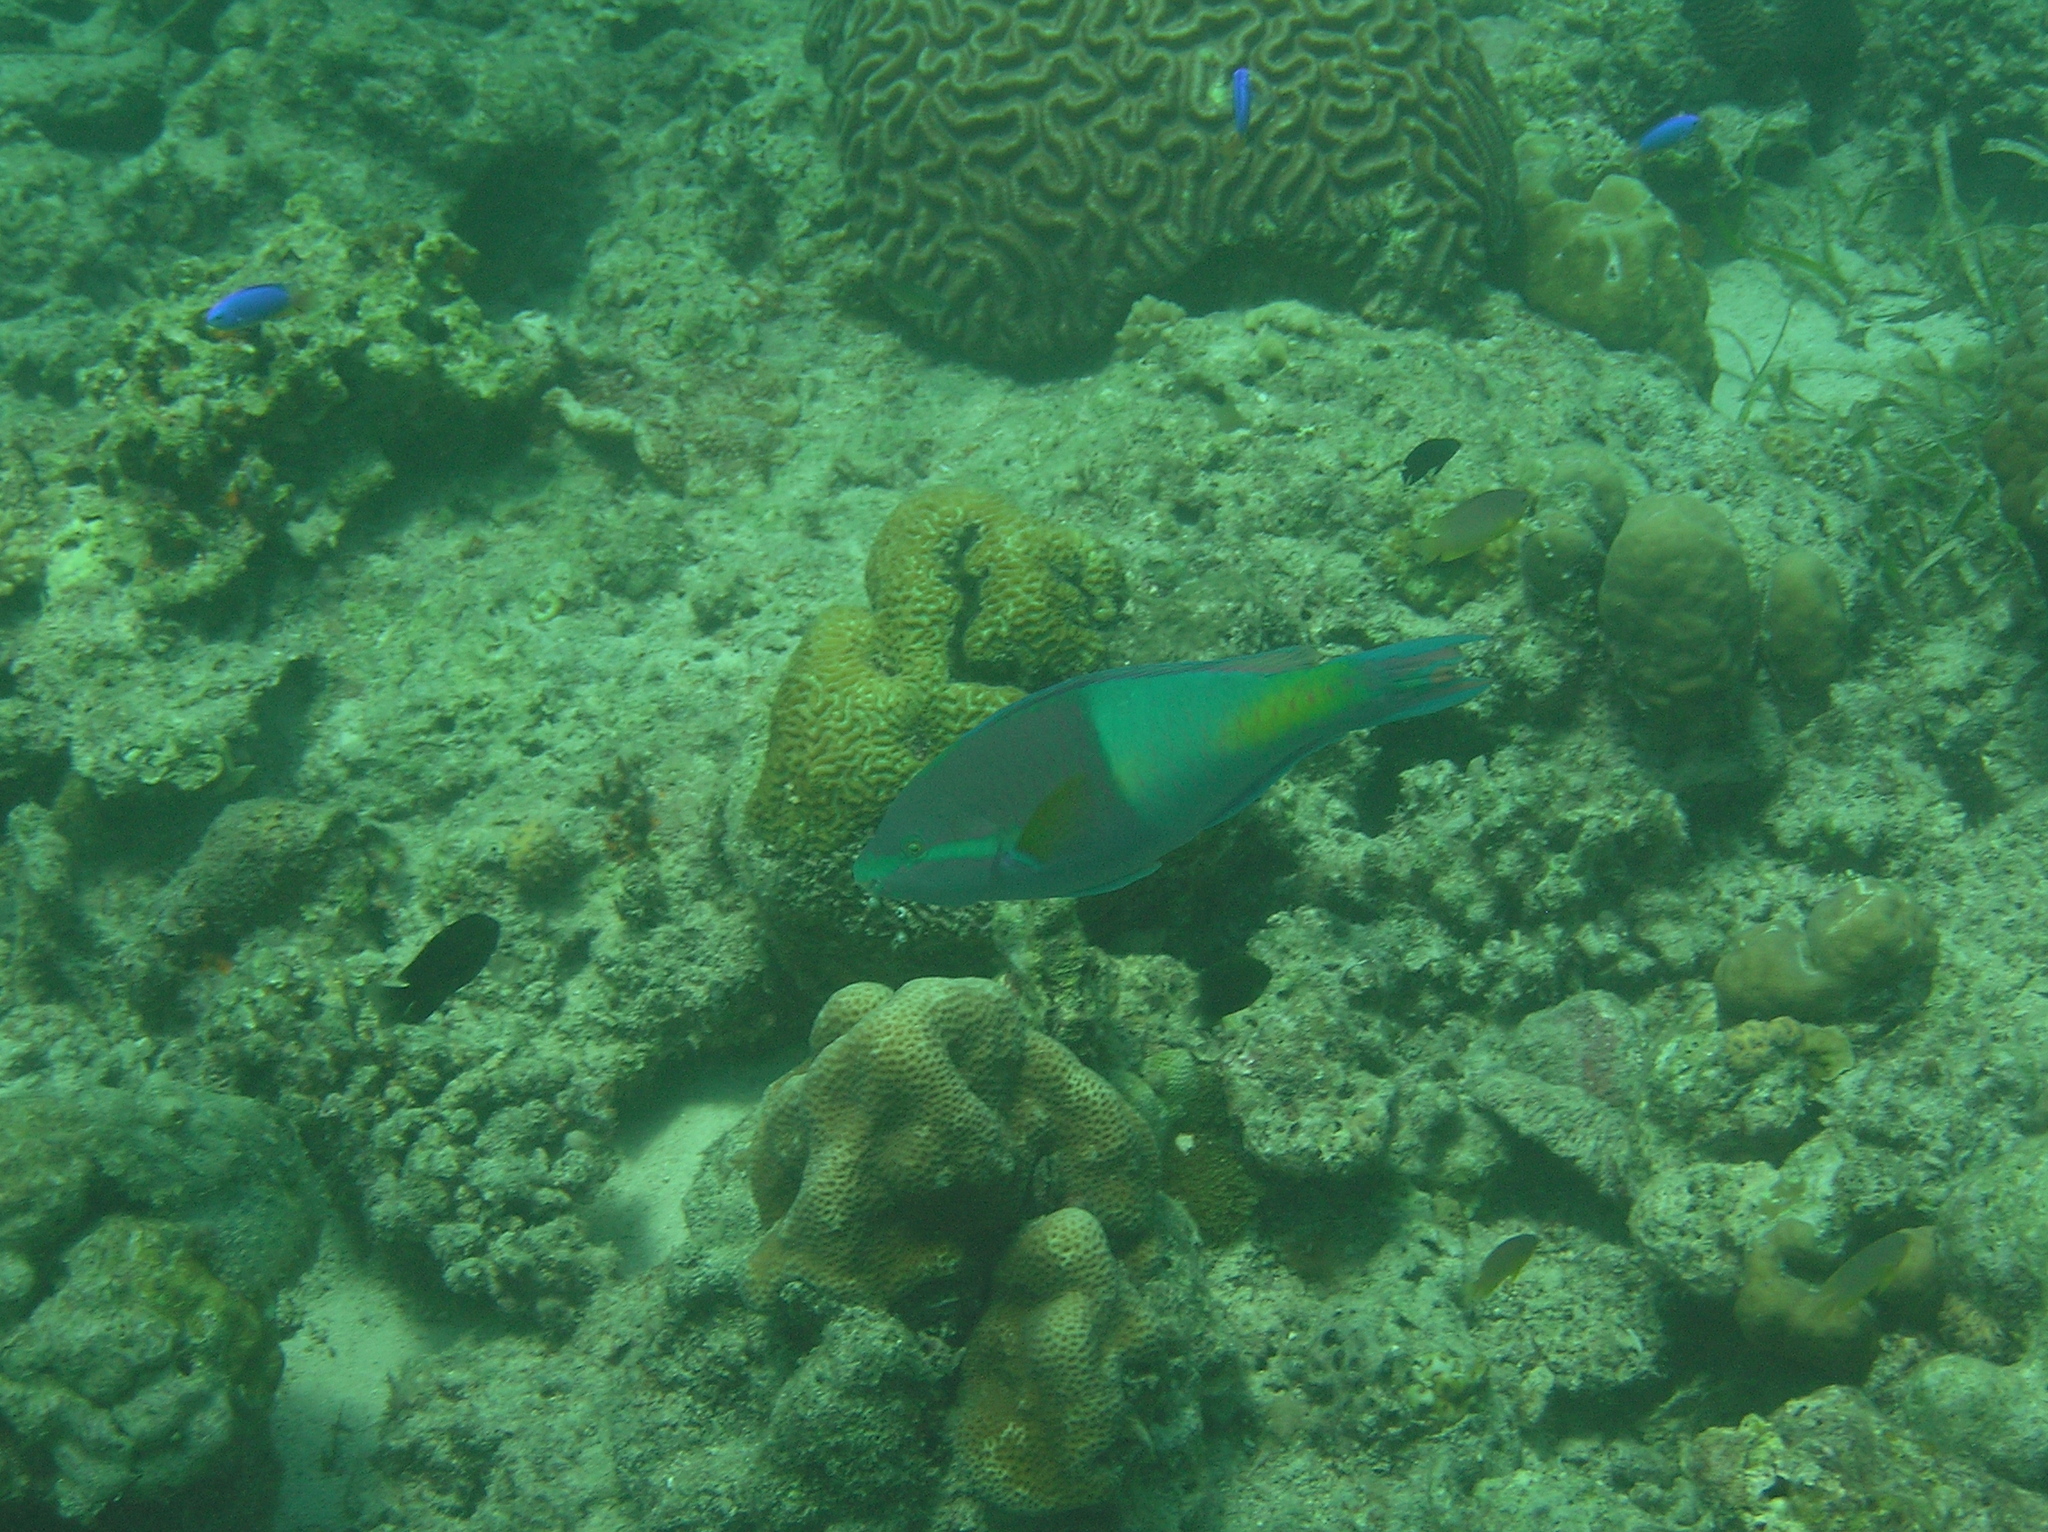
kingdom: Animalia
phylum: Chordata
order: Perciformes
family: Scaridae
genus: Scarus
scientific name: Scarus flavipectoralis
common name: Yellowfin parrotfish
